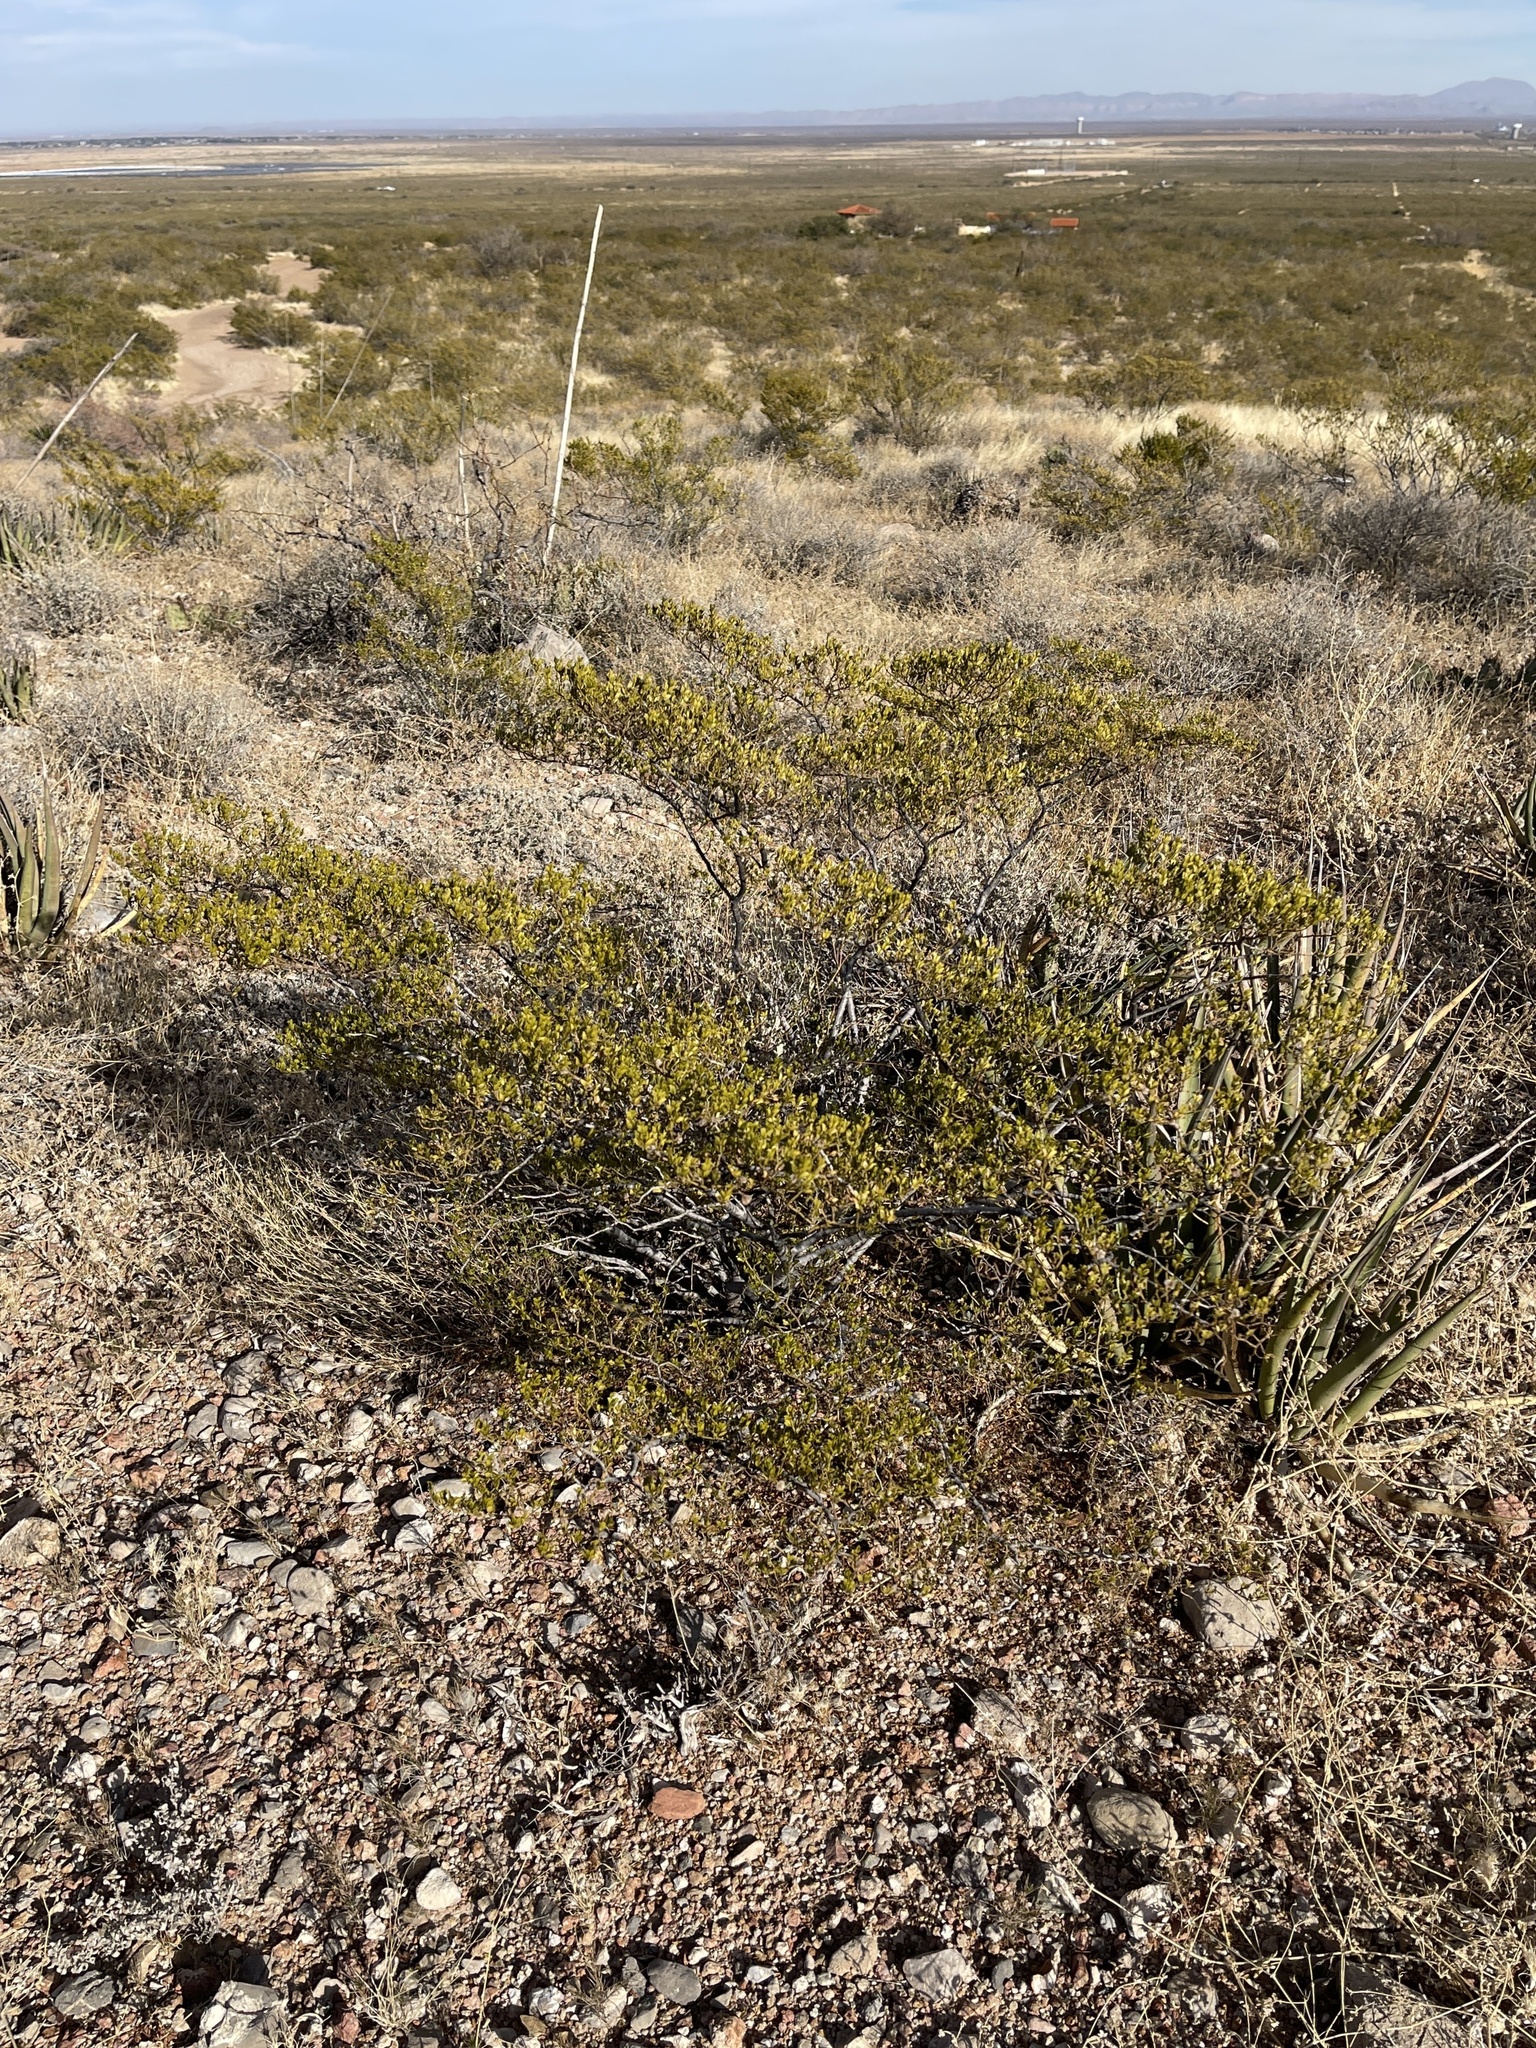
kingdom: Plantae
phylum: Tracheophyta
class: Magnoliopsida
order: Zygophyllales
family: Zygophyllaceae
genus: Larrea
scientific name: Larrea tridentata
